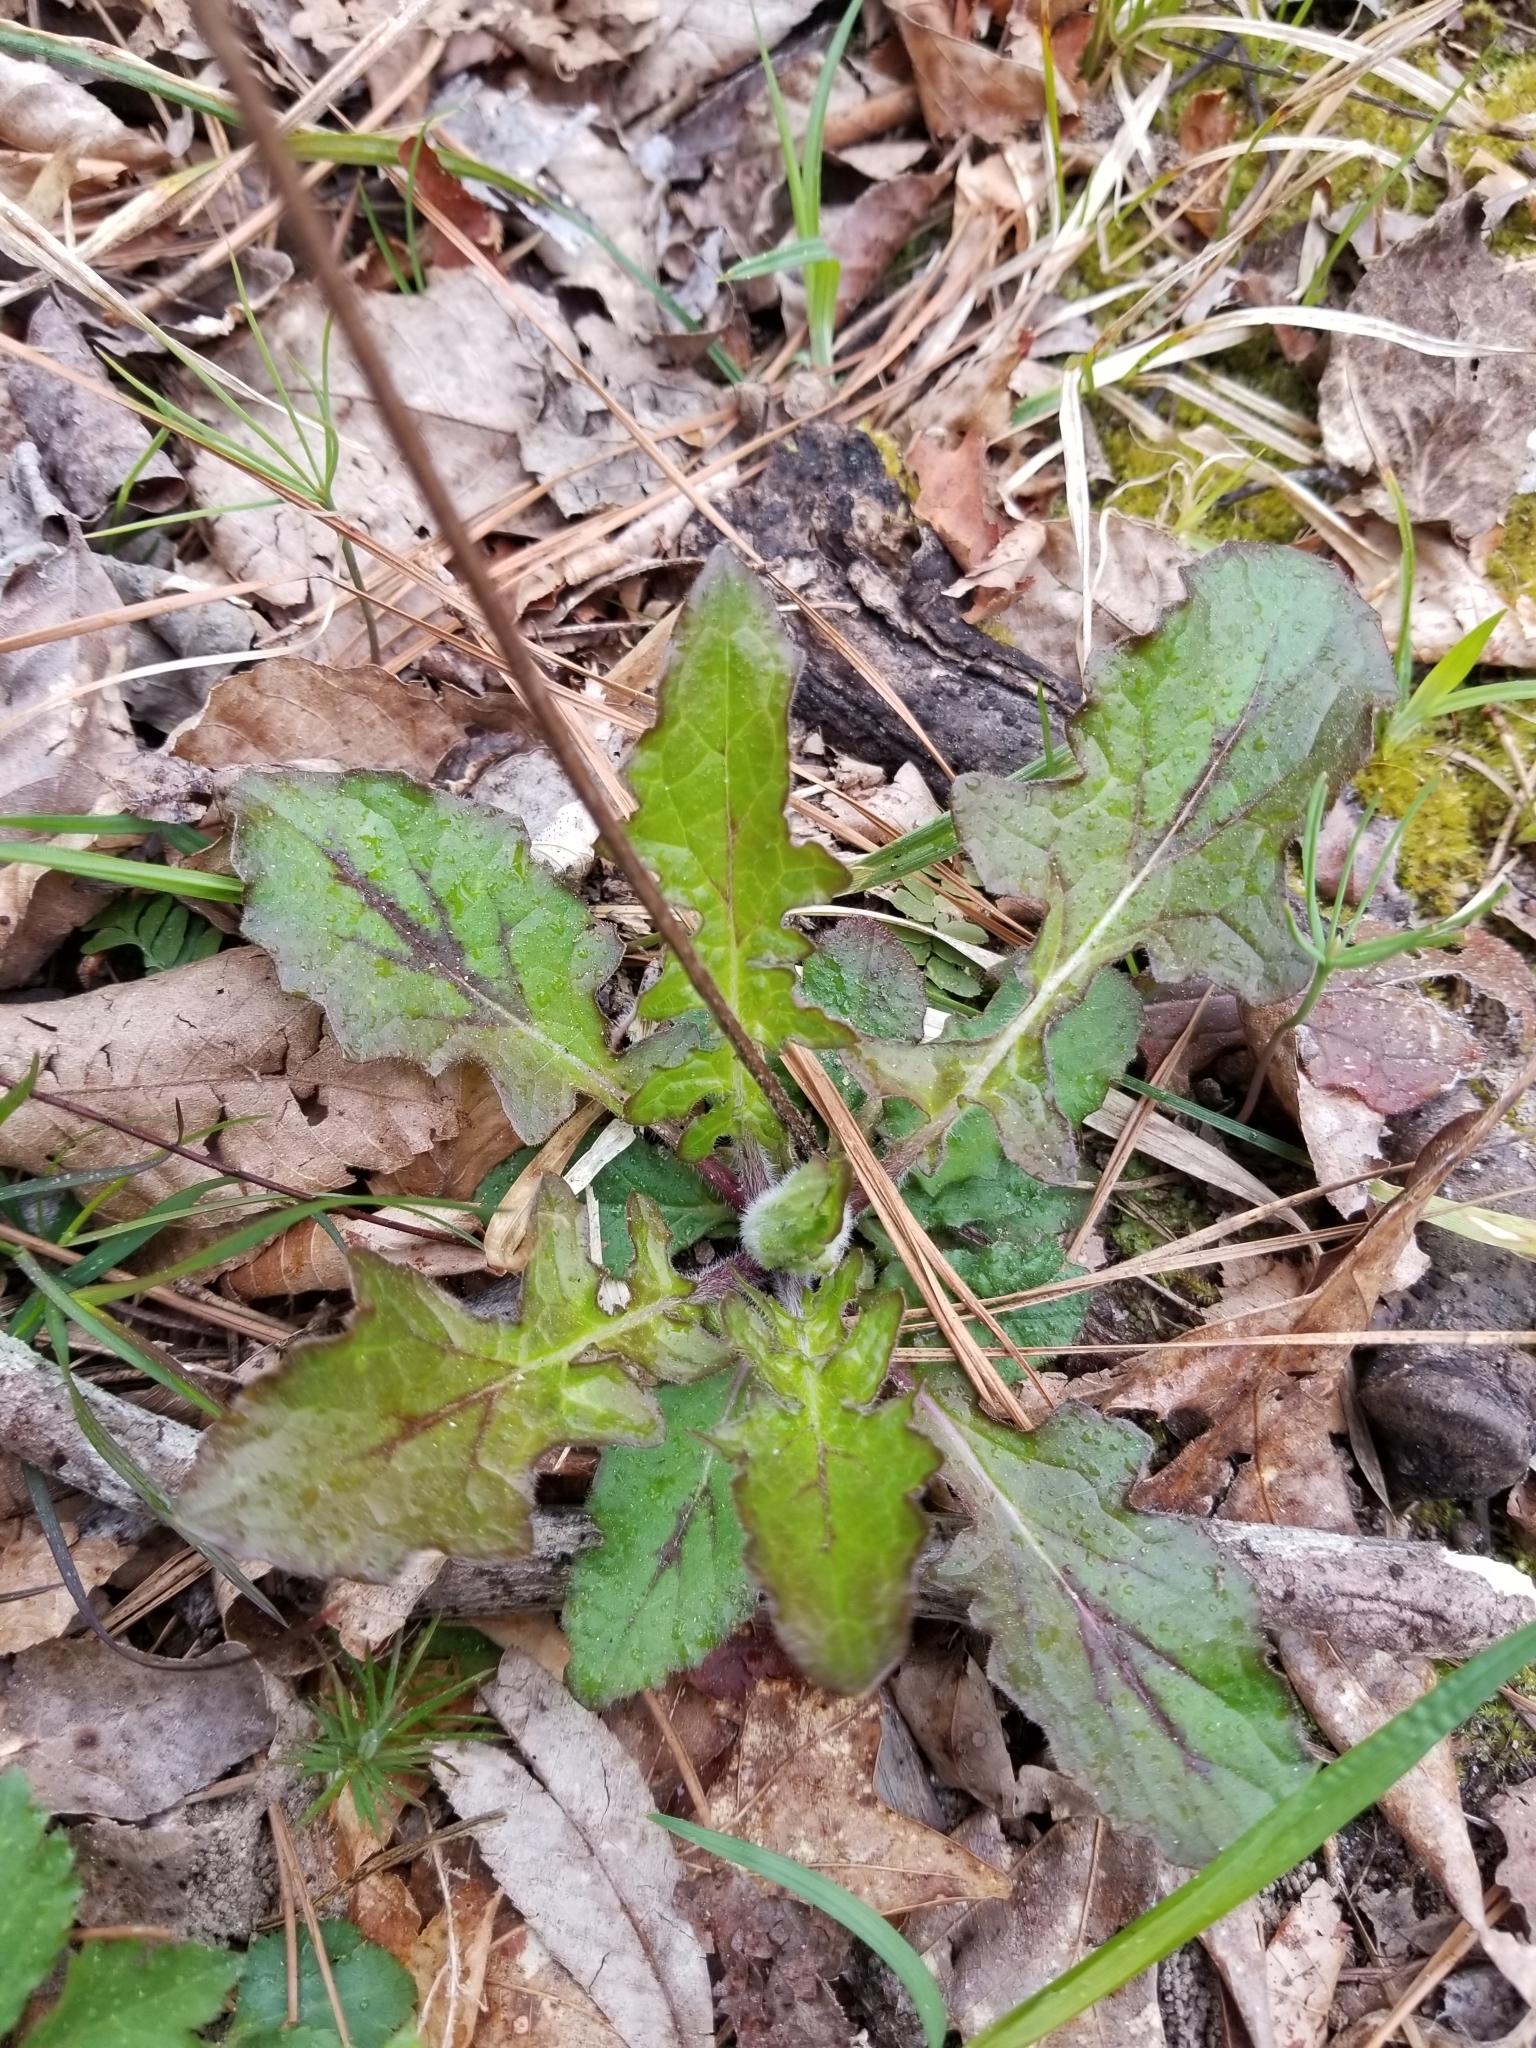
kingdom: Plantae
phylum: Tracheophyta
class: Magnoliopsida
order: Lamiales
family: Lamiaceae
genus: Salvia
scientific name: Salvia lyrata
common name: Cancerweed
